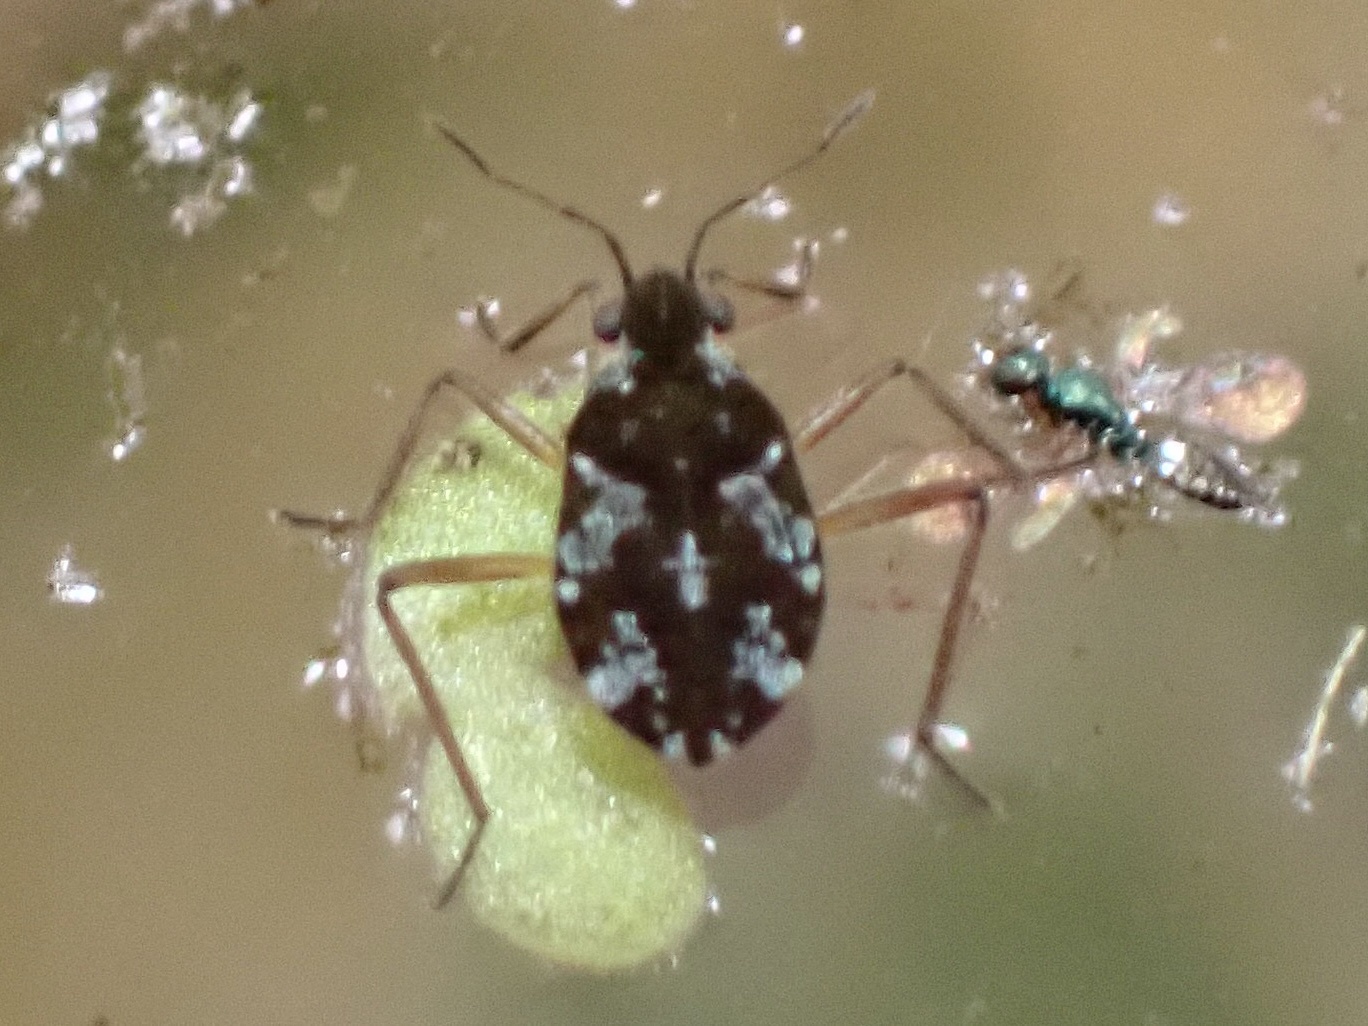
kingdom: Animalia
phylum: Arthropoda
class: Insecta
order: Hemiptera
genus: Kirkaldya
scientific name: Kirkaldya
